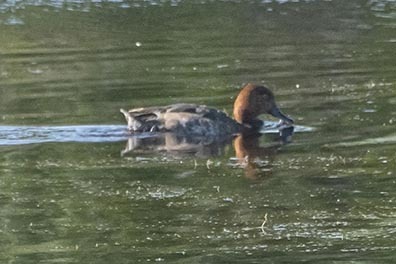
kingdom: Animalia
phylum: Chordata
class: Aves
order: Anseriformes
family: Anatidae
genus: Aythya
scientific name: Aythya americana
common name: Redhead
